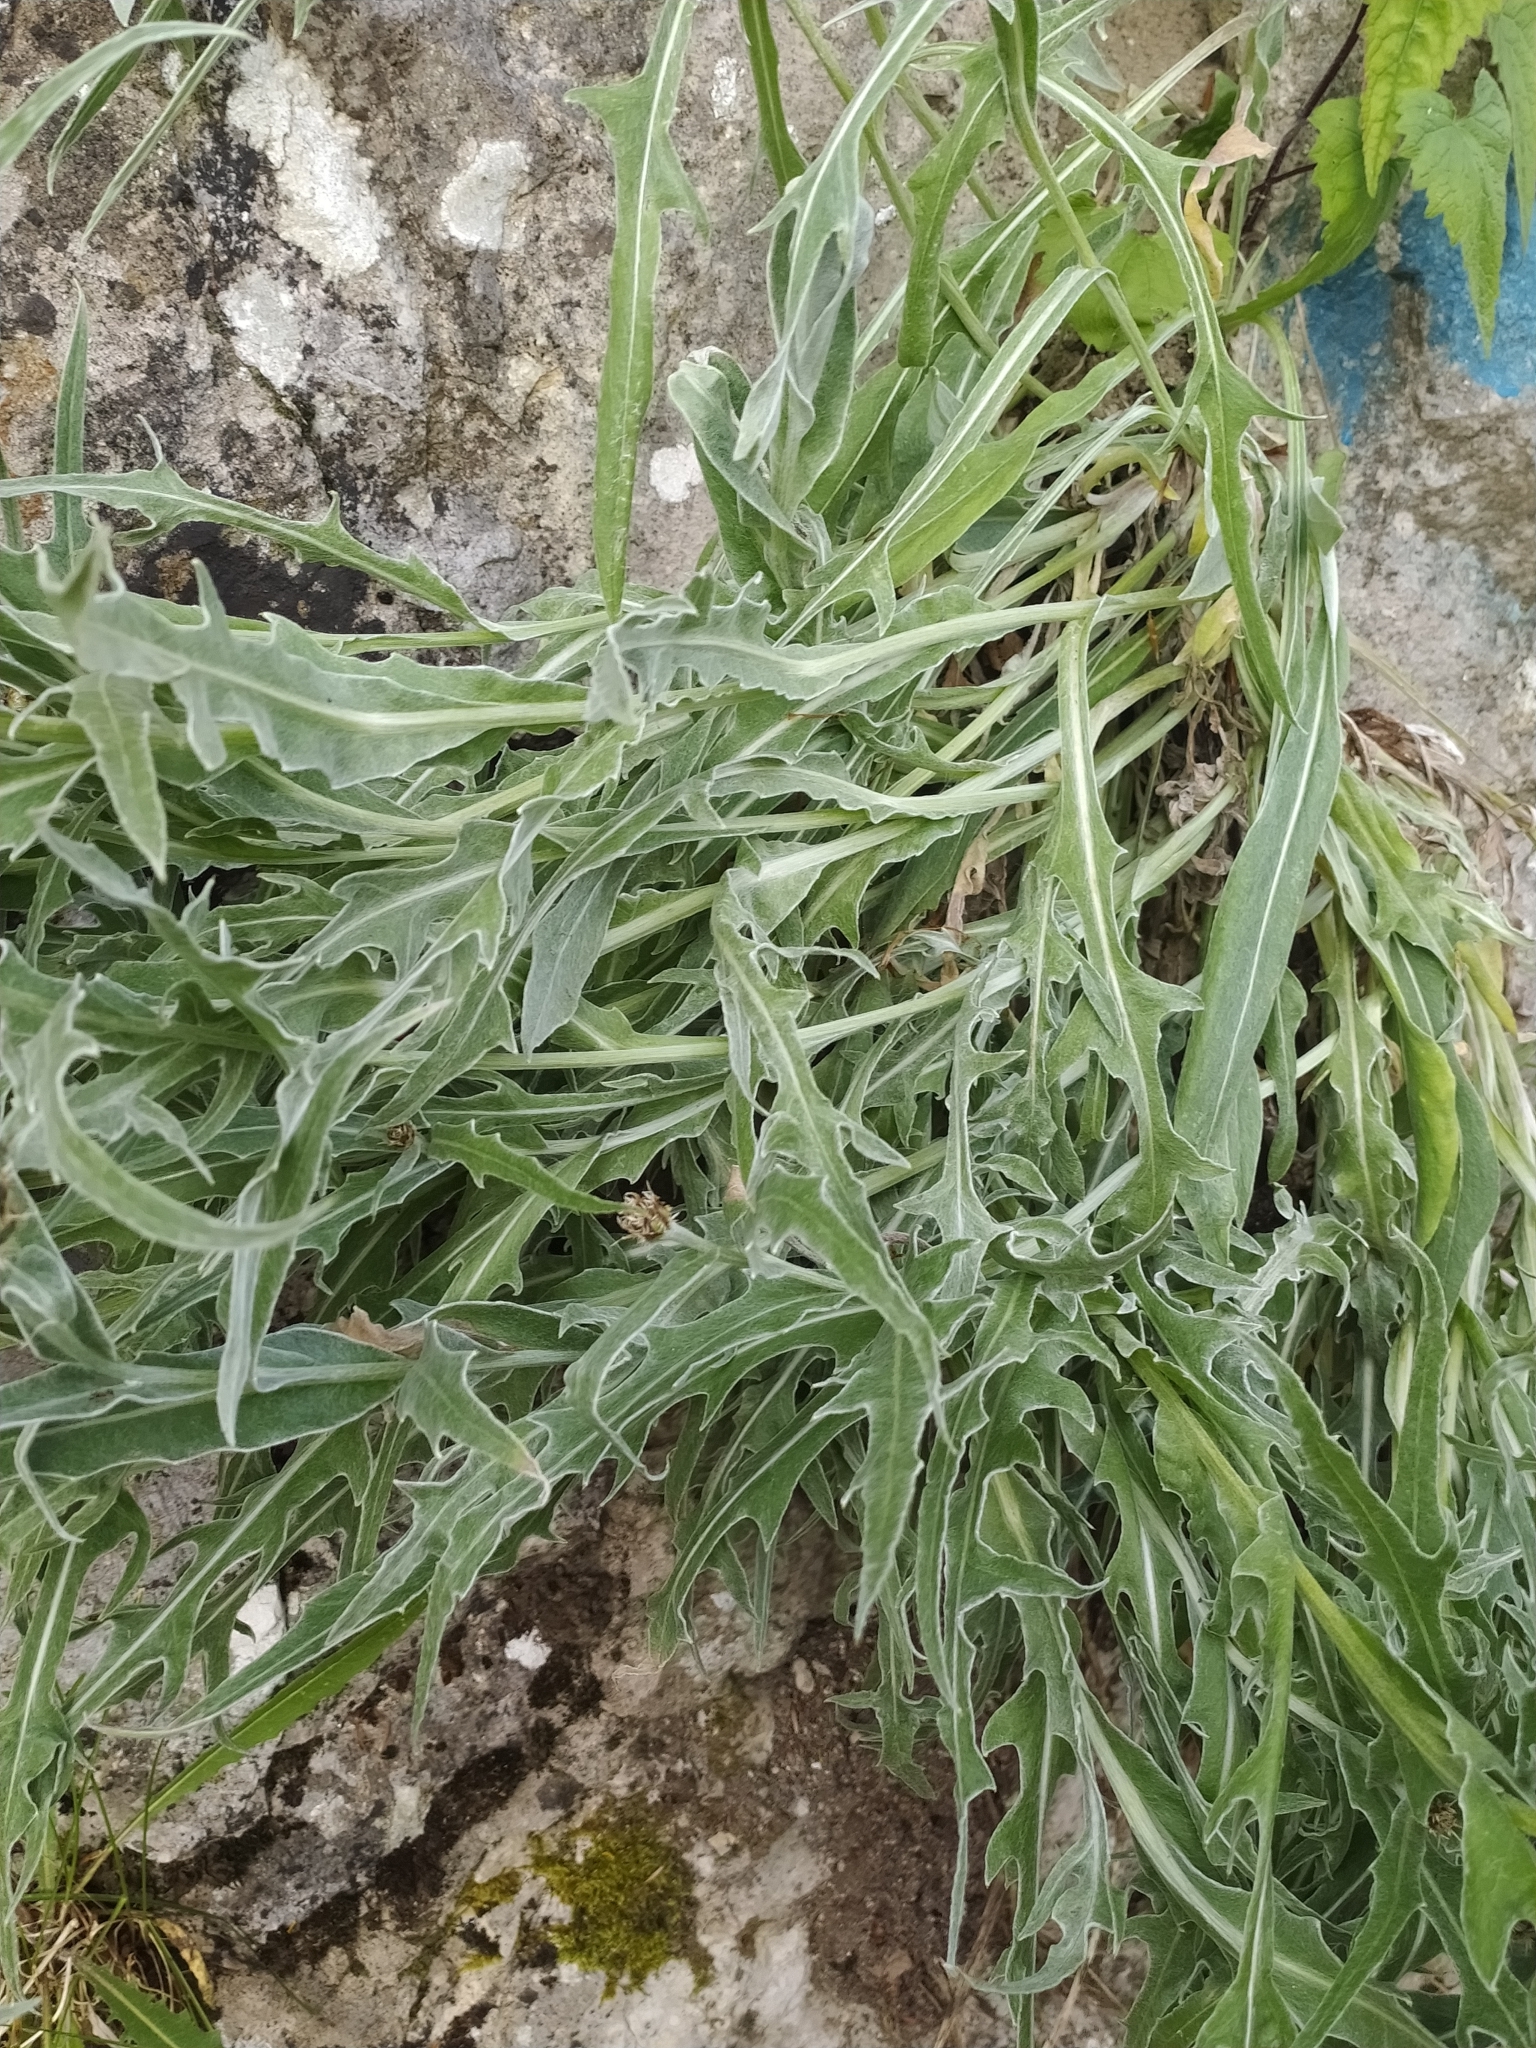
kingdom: Plantae
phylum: Tracheophyta
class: Magnoliopsida
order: Asterales
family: Asteraceae
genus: Centaurea
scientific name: Centaurea triumfettii
